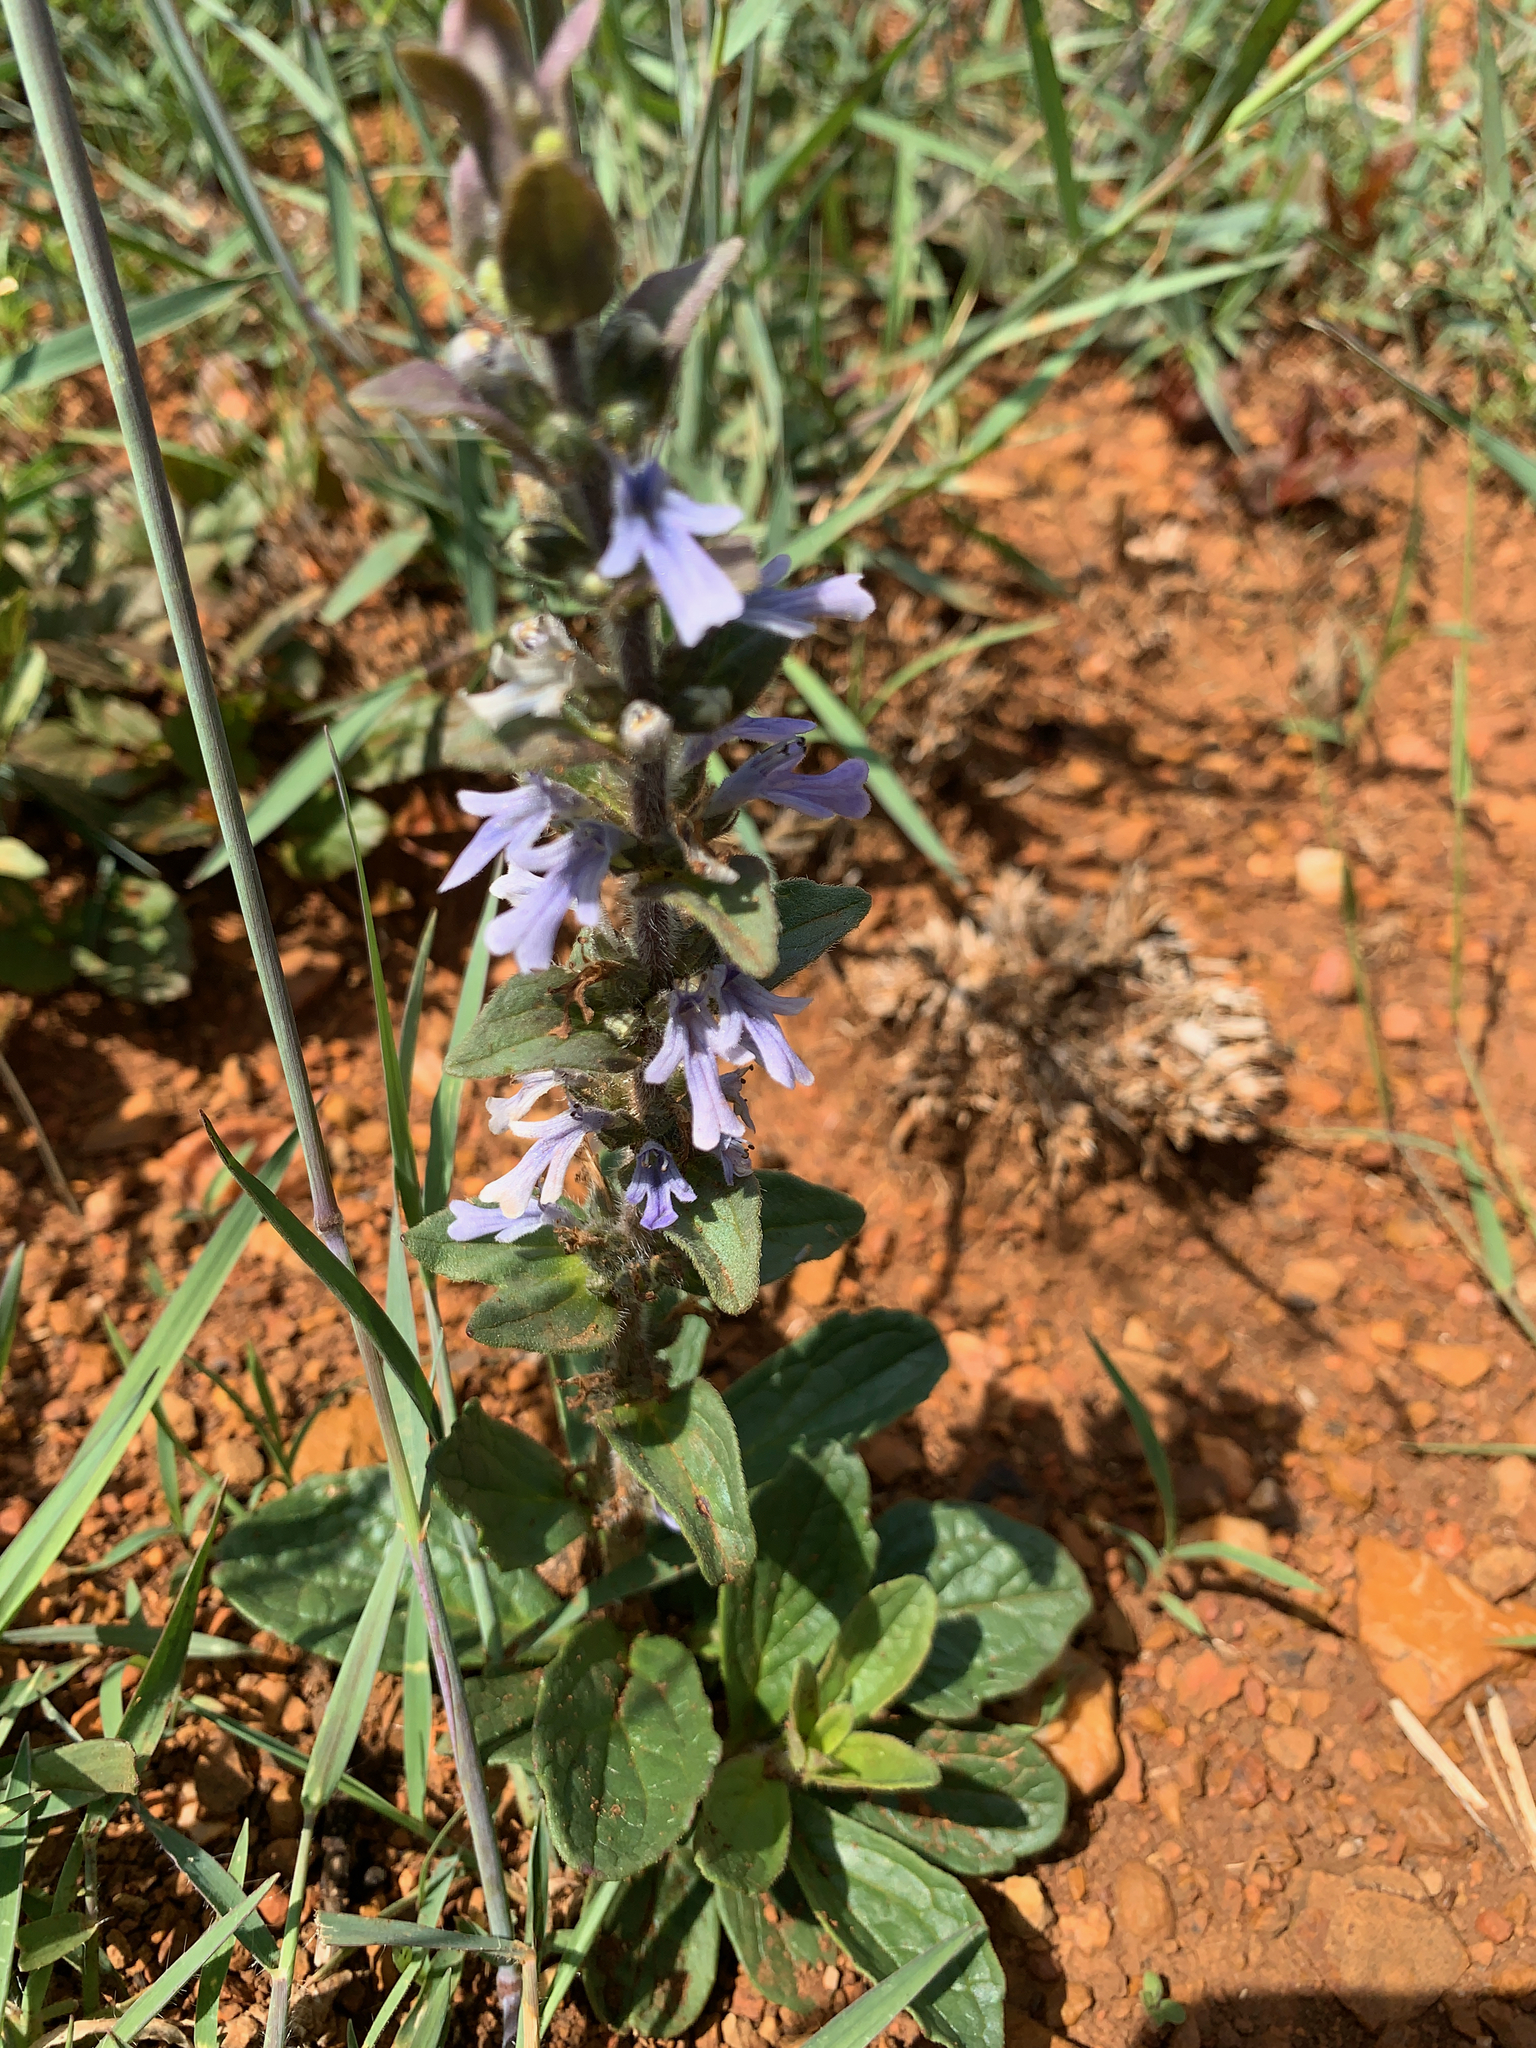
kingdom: Plantae
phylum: Tracheophyta
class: Magnoliopsida
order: Lamiales
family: Lamiaceae
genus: Ajuga
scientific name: Ajuga ophrydis
